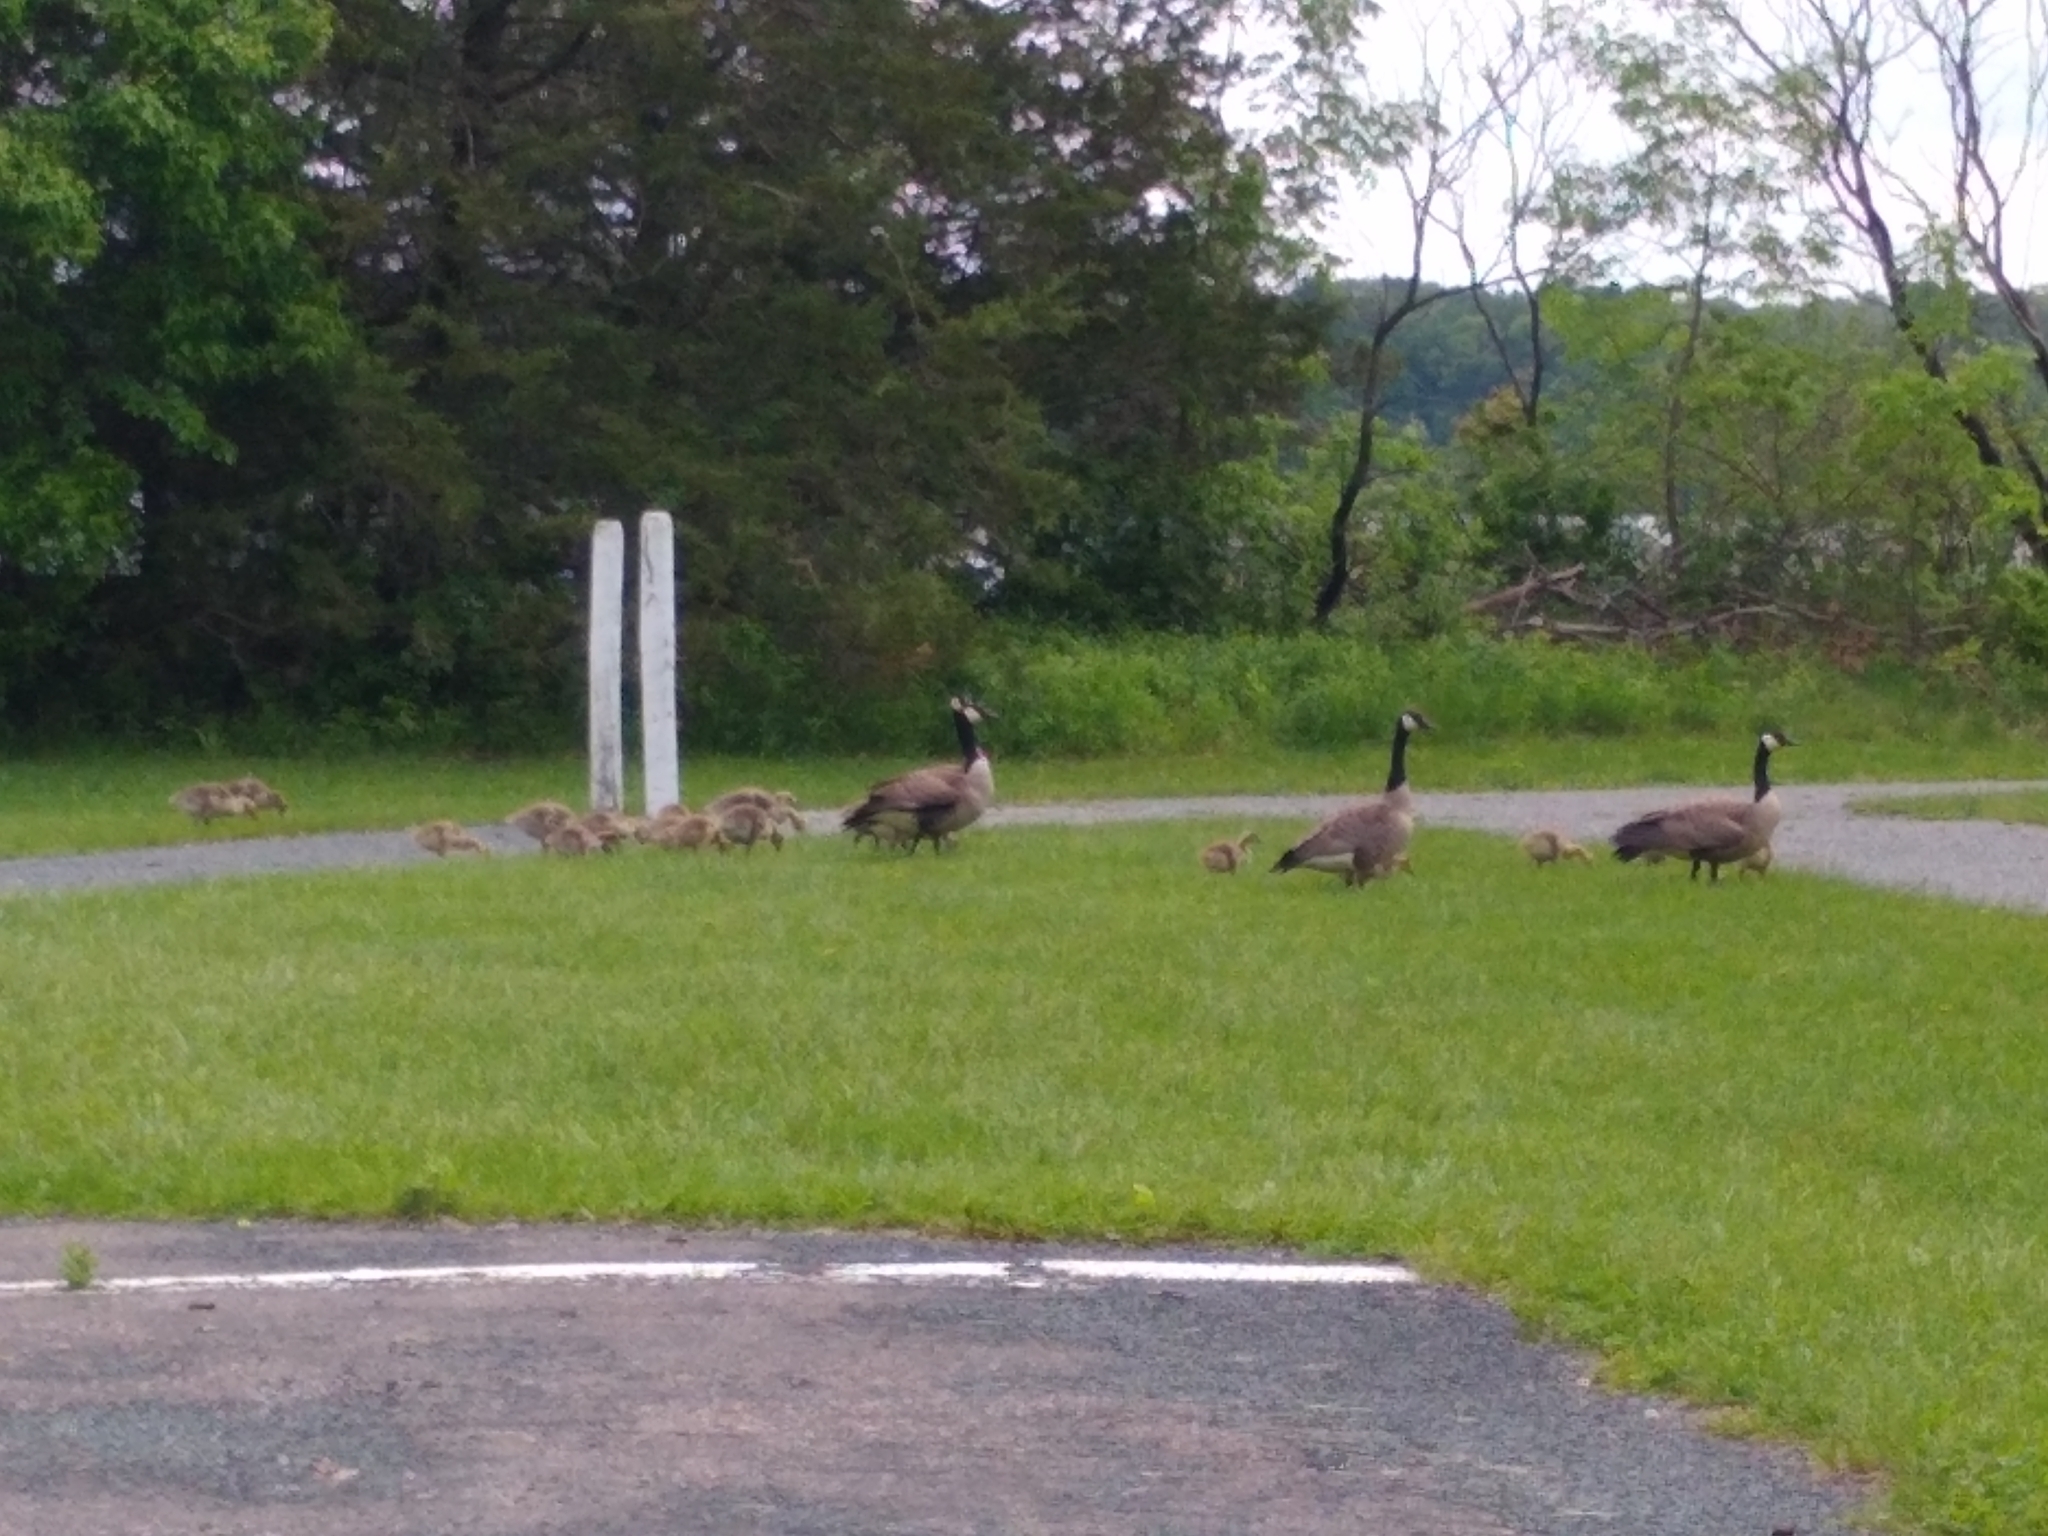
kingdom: Animalia
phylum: Chordata
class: Aves
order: Anseriformes
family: Anatidae
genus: Branta
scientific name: Branta canadensis
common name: Canada goose
